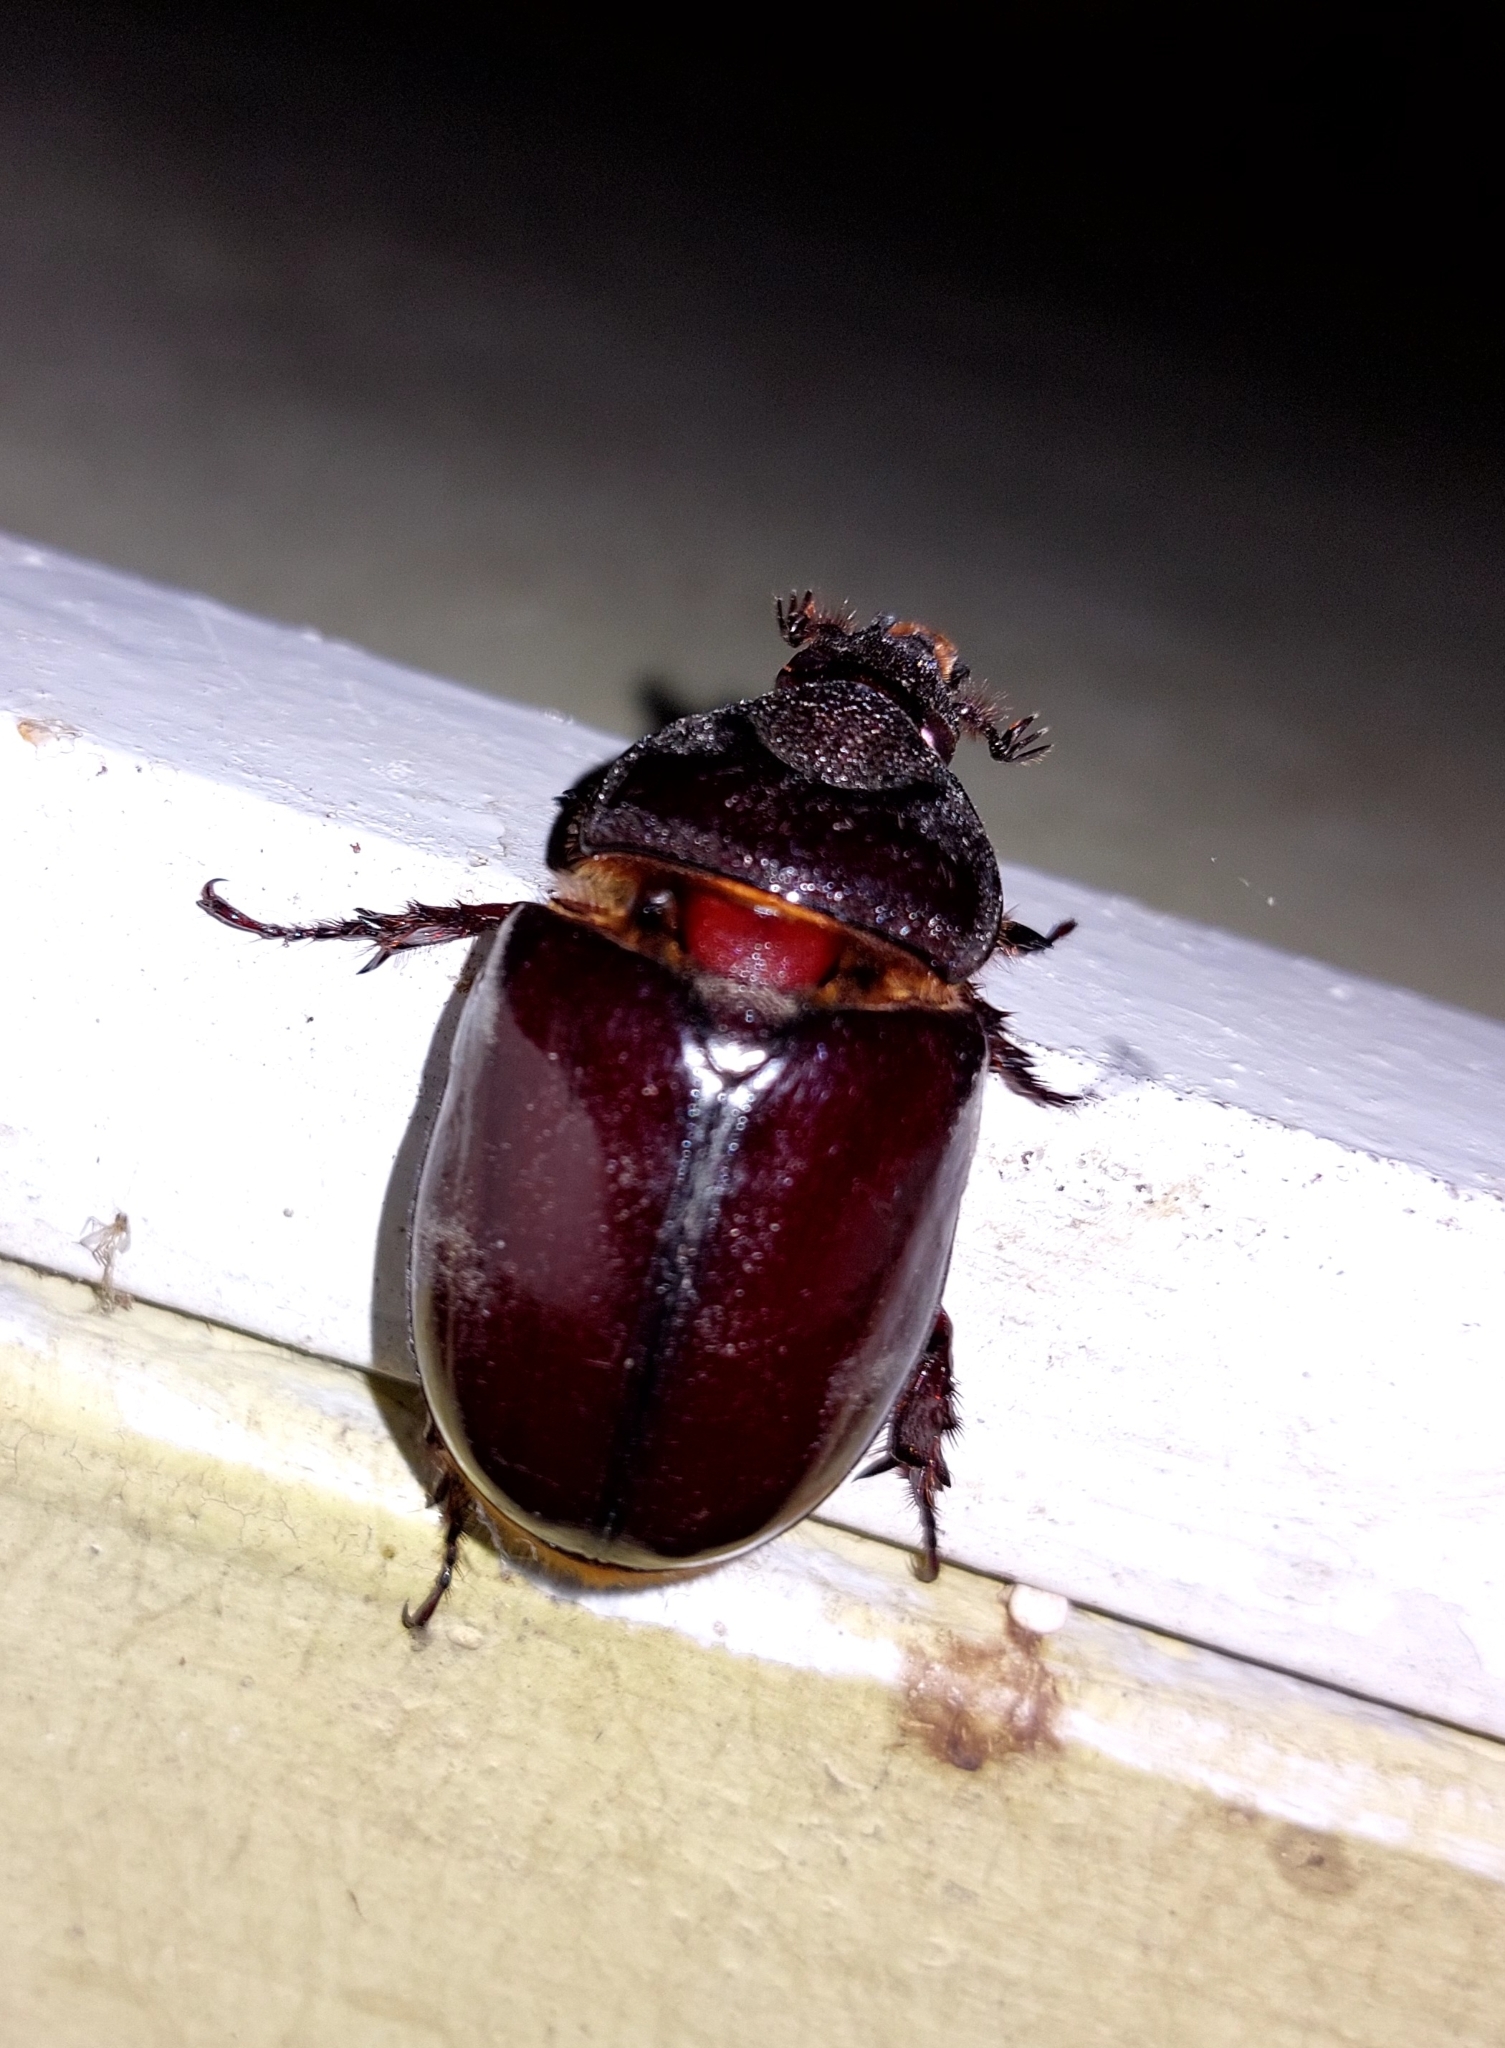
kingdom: Animalia
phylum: Arthropoda
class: Insecta
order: Coleoptera
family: Scarabaeidae
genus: Strategus
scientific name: Strategus aloeus
